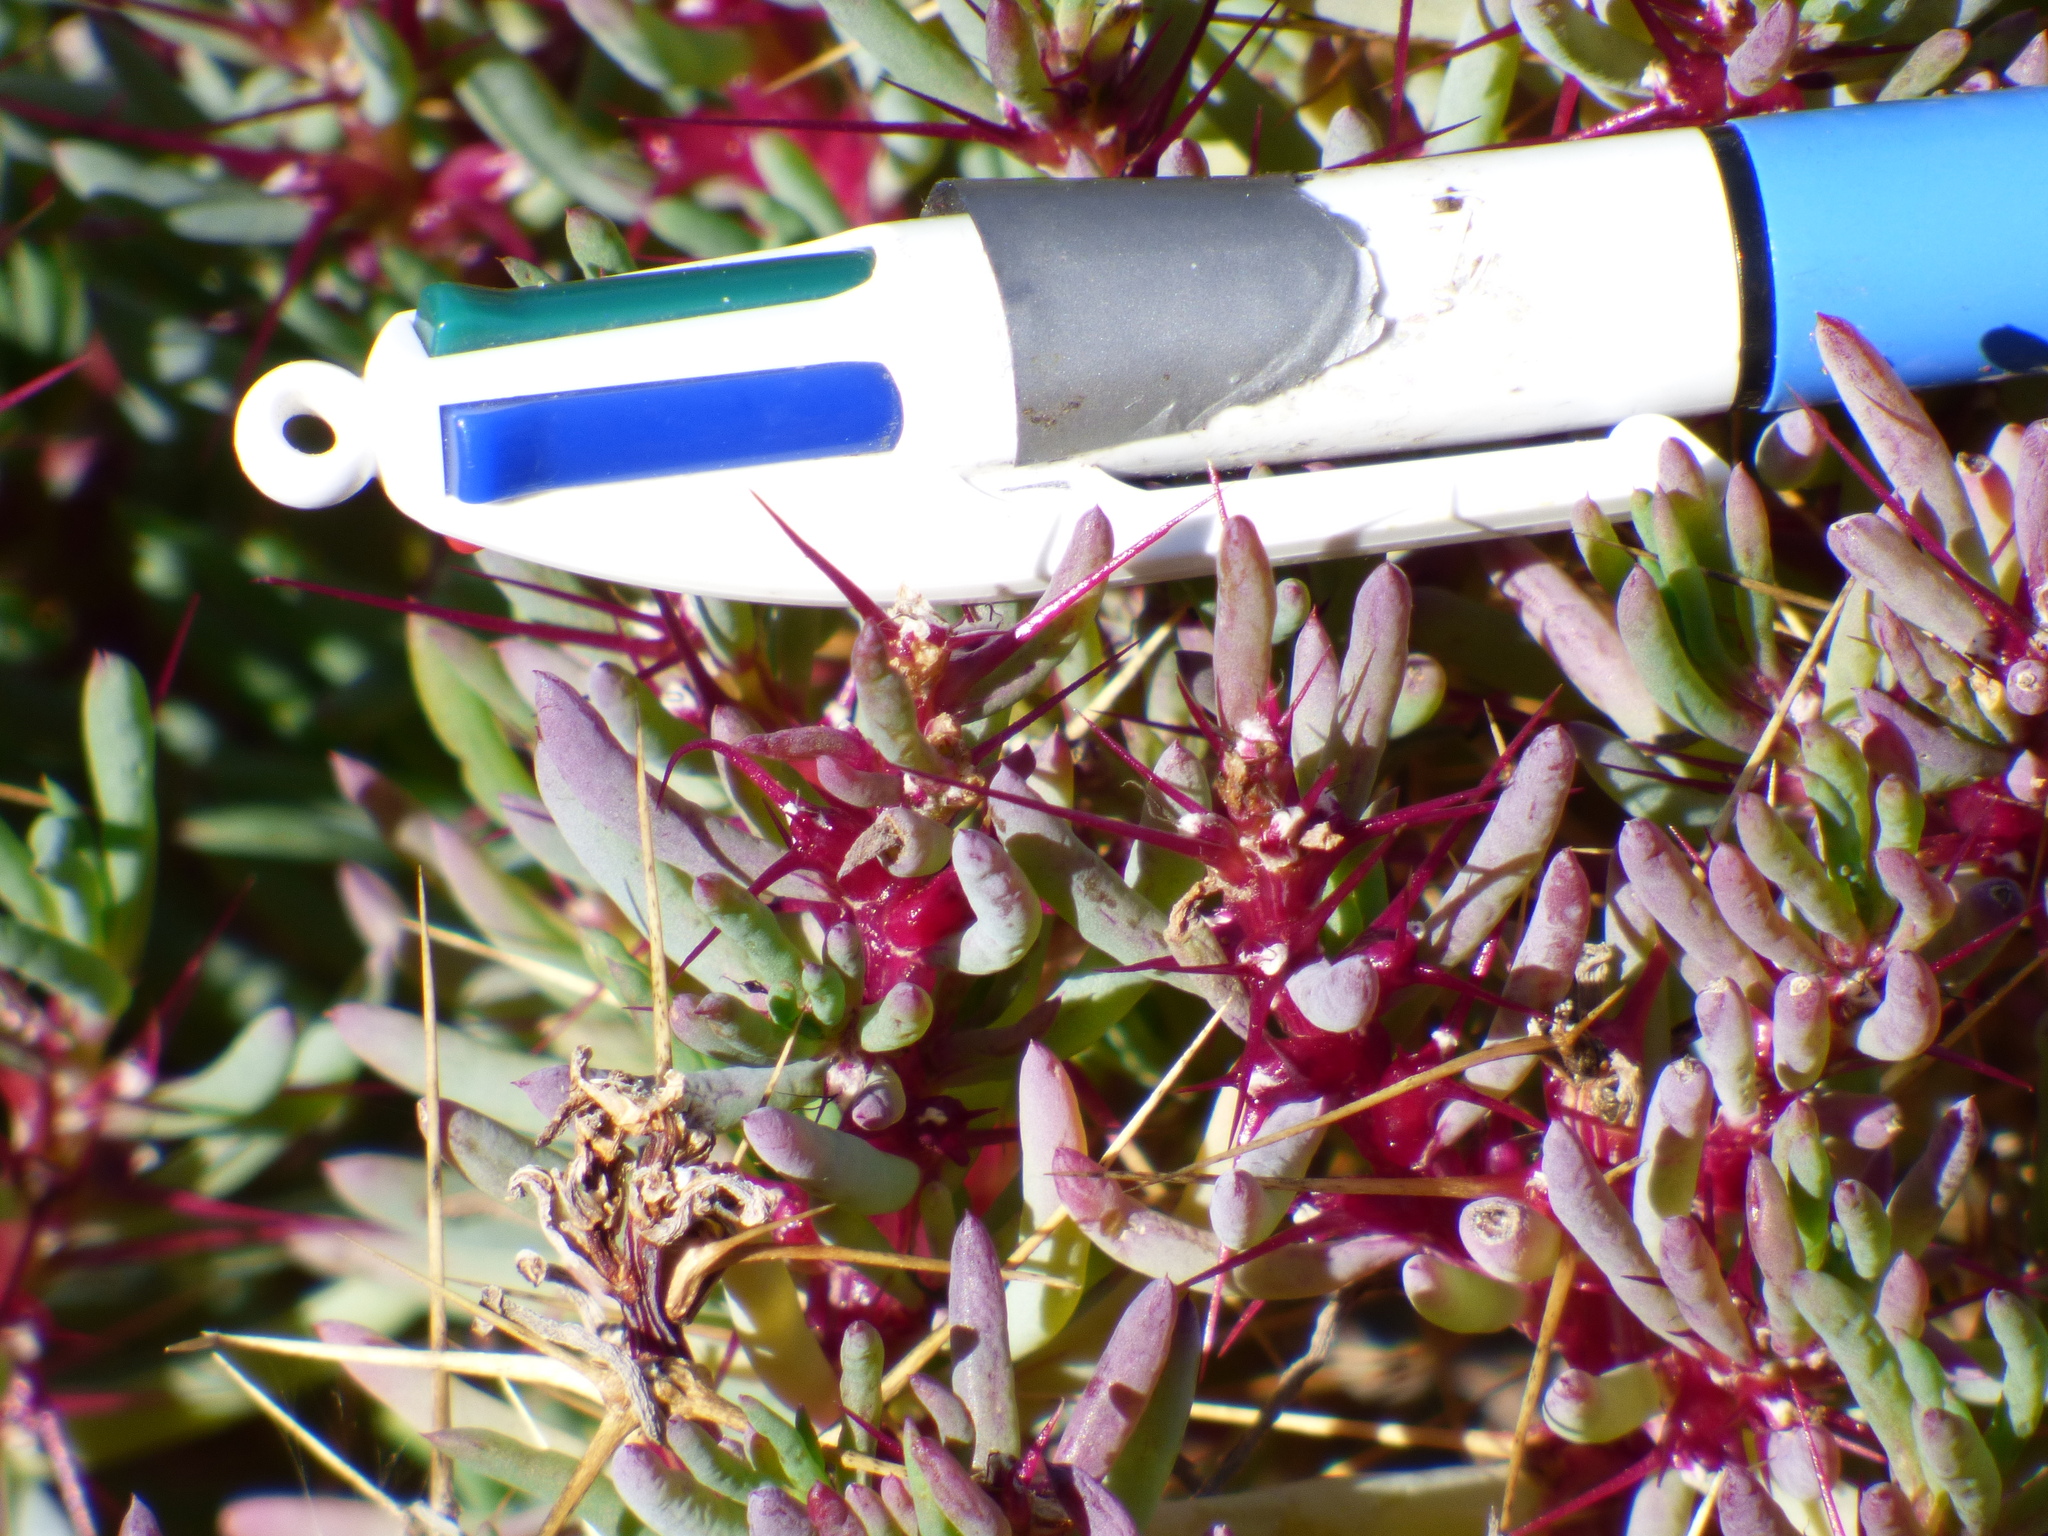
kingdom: Plantae
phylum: Tracheophyta
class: Magnoliopsida
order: Caryophyllales
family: Amaranthaceae
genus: Sclerolaena
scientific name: Sclerolaena longicuspis
